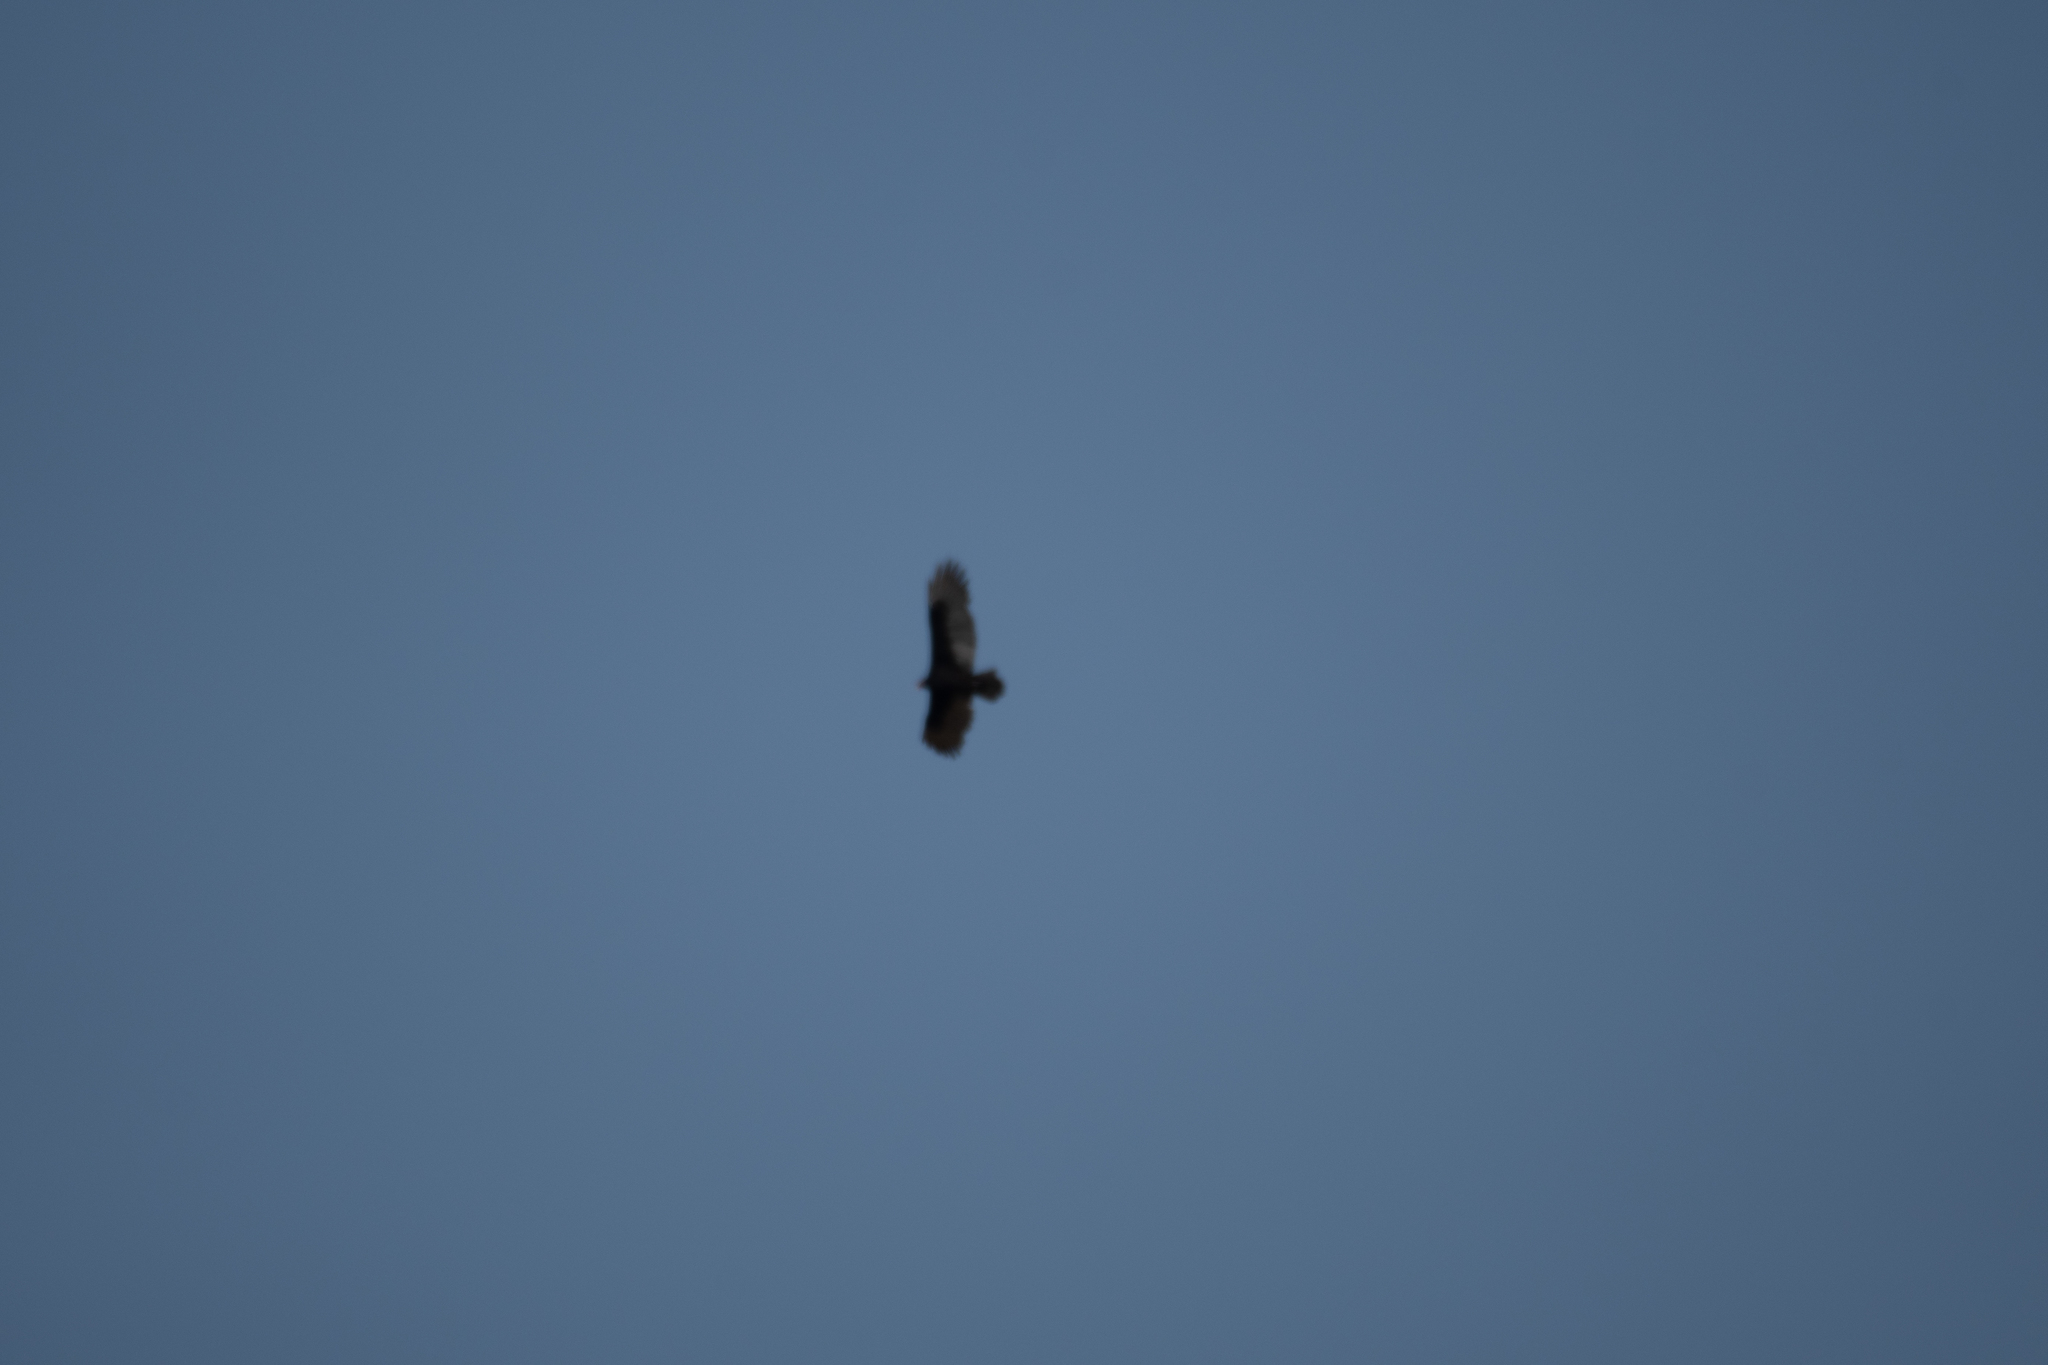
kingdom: Animalia
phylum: Chordata
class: Aves
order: Accipitriformes
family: Cathartidae
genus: Cathartes
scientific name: Cathartes aura
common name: Turkey vulture
